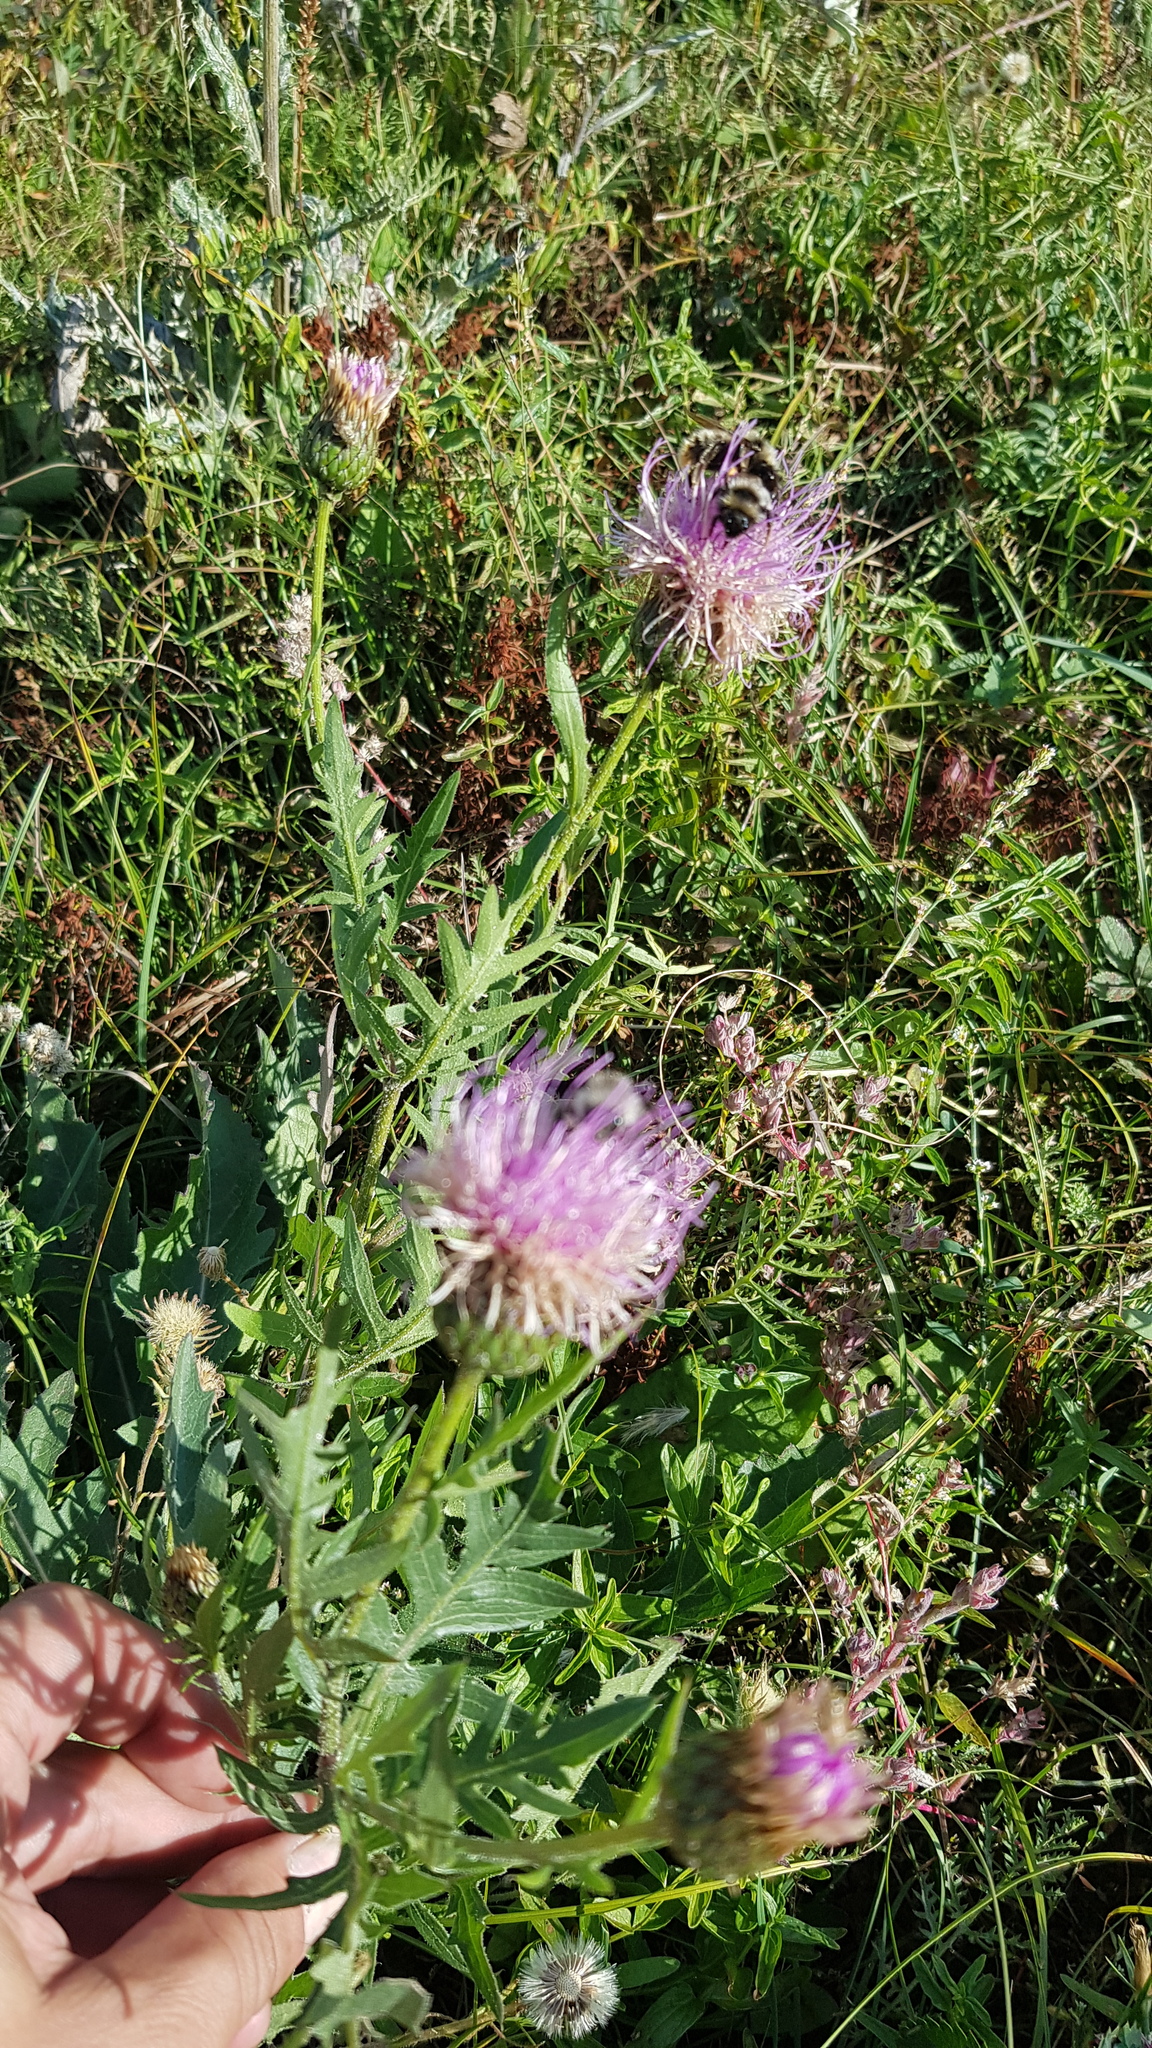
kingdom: Plantae
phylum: Tracheophyta
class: Magnoliopsida
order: Asterales
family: Asteraceae
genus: Klasea
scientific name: Klasea centauroides
